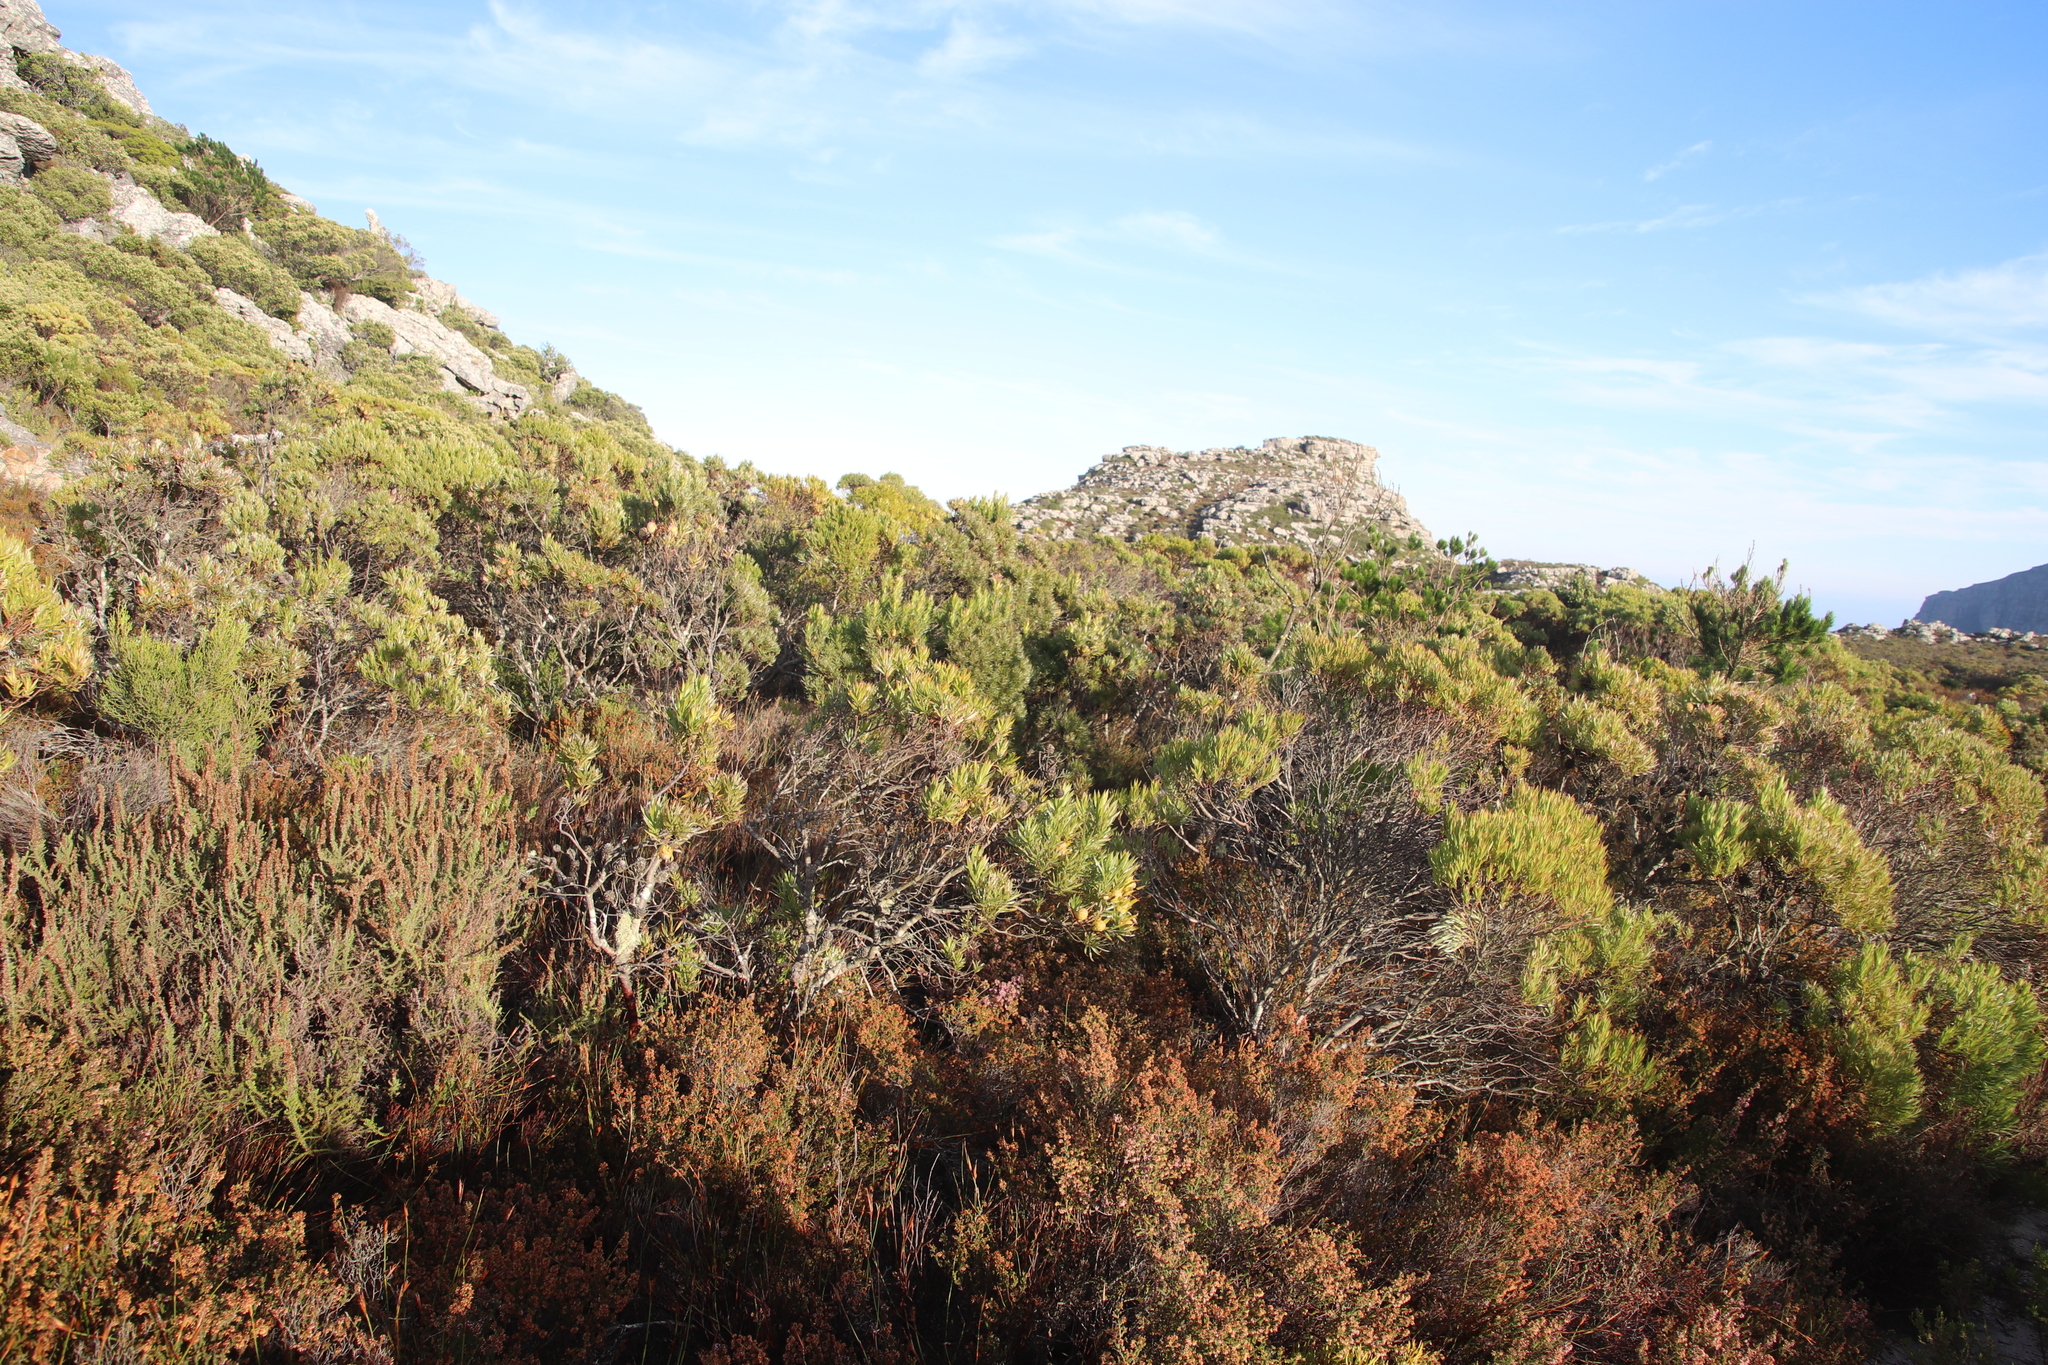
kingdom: Plantae
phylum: Tracheophyta
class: Magnoliopsida
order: Proteales
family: Proteaceae
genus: Leucadendron
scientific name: Leucadendron xanthoconus
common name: Sickle-leaf conebush
